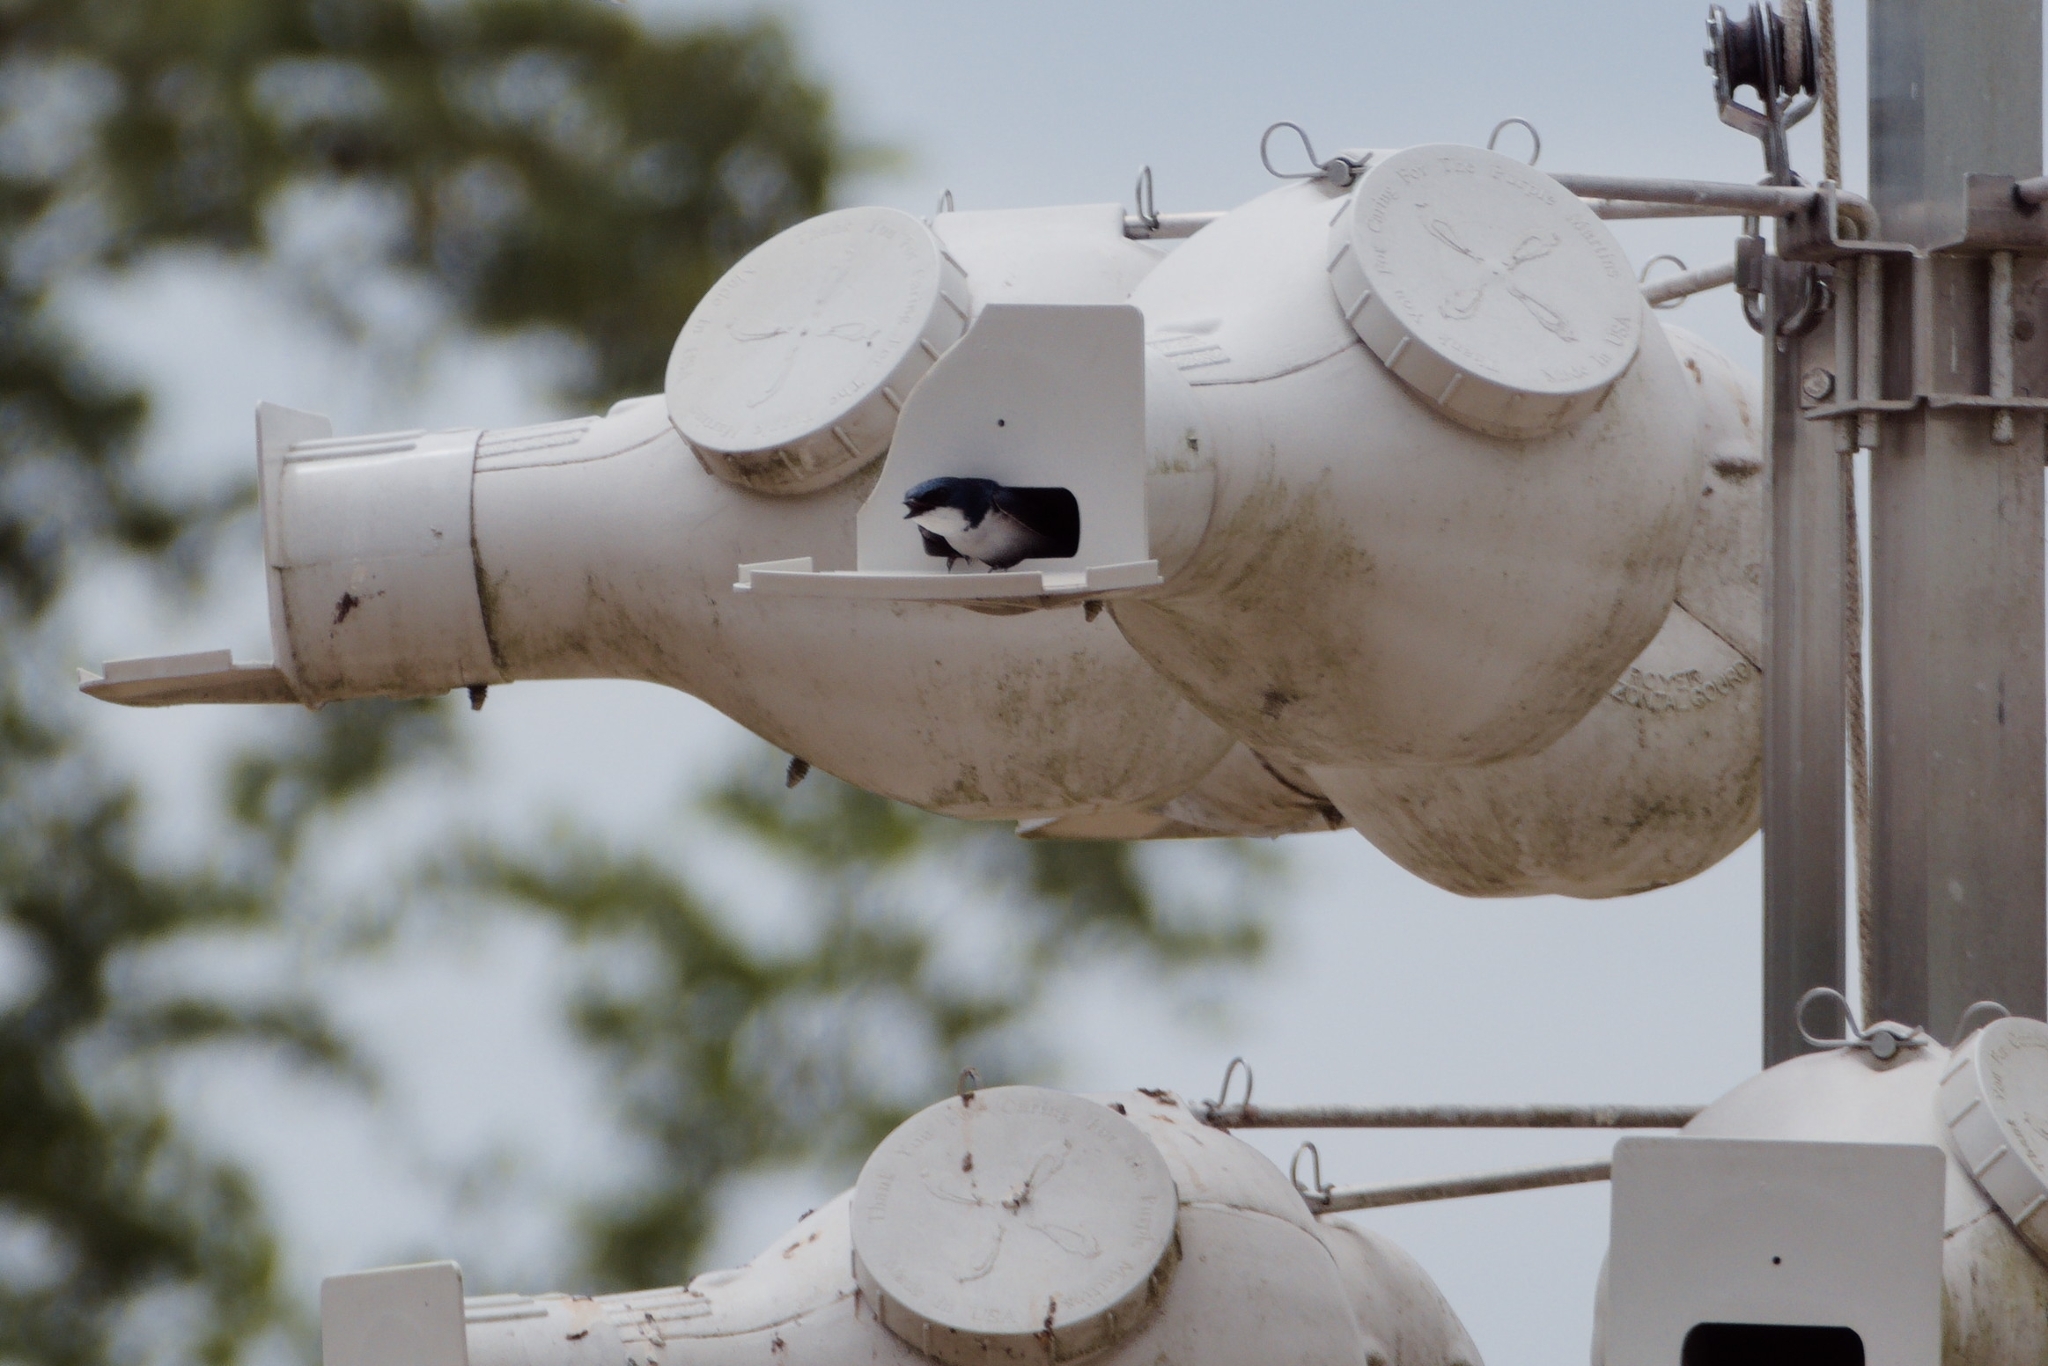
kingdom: Animalia
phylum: Chordata
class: Aves
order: Passeriformes
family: Hirundinidae
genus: Tachycineta
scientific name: Tachycineta bicolor
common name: Tree swallow
